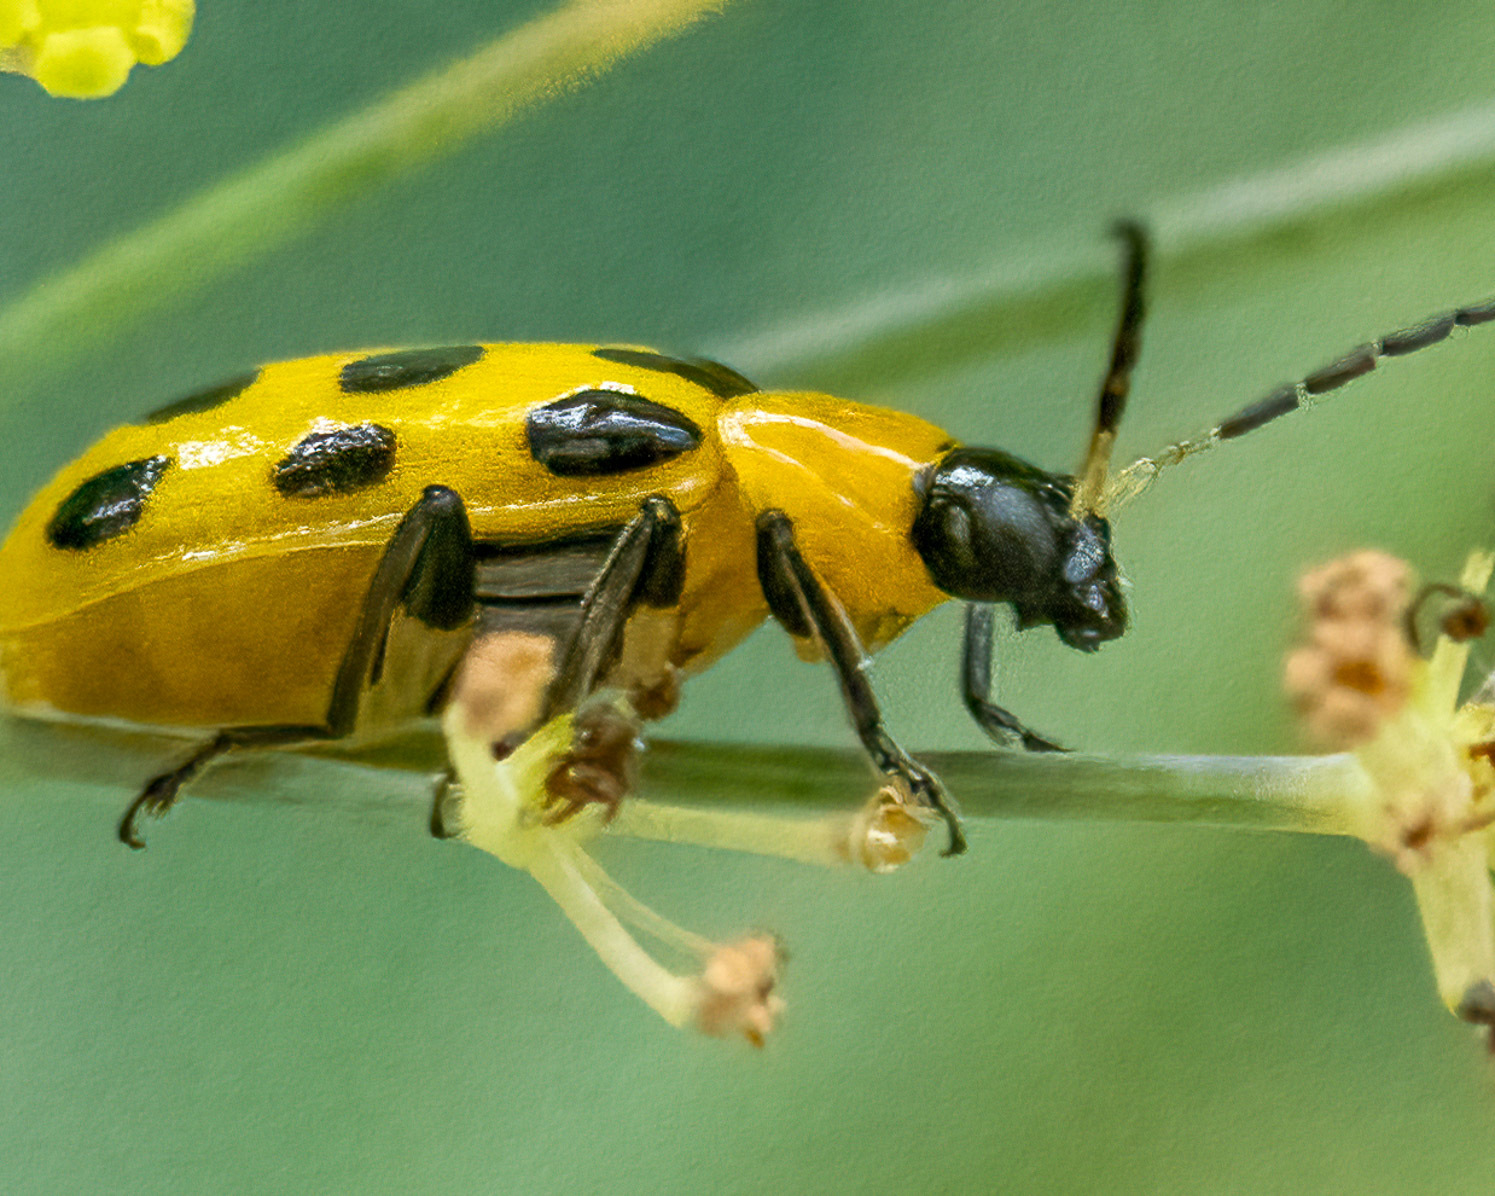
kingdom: Animalia
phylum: Arthropoda
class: Insecta
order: Coleoptera
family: Chrysomelidae
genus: Diabrotica
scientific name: Diabrotica undecimpunctata
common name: Spotted cucumber beetle
